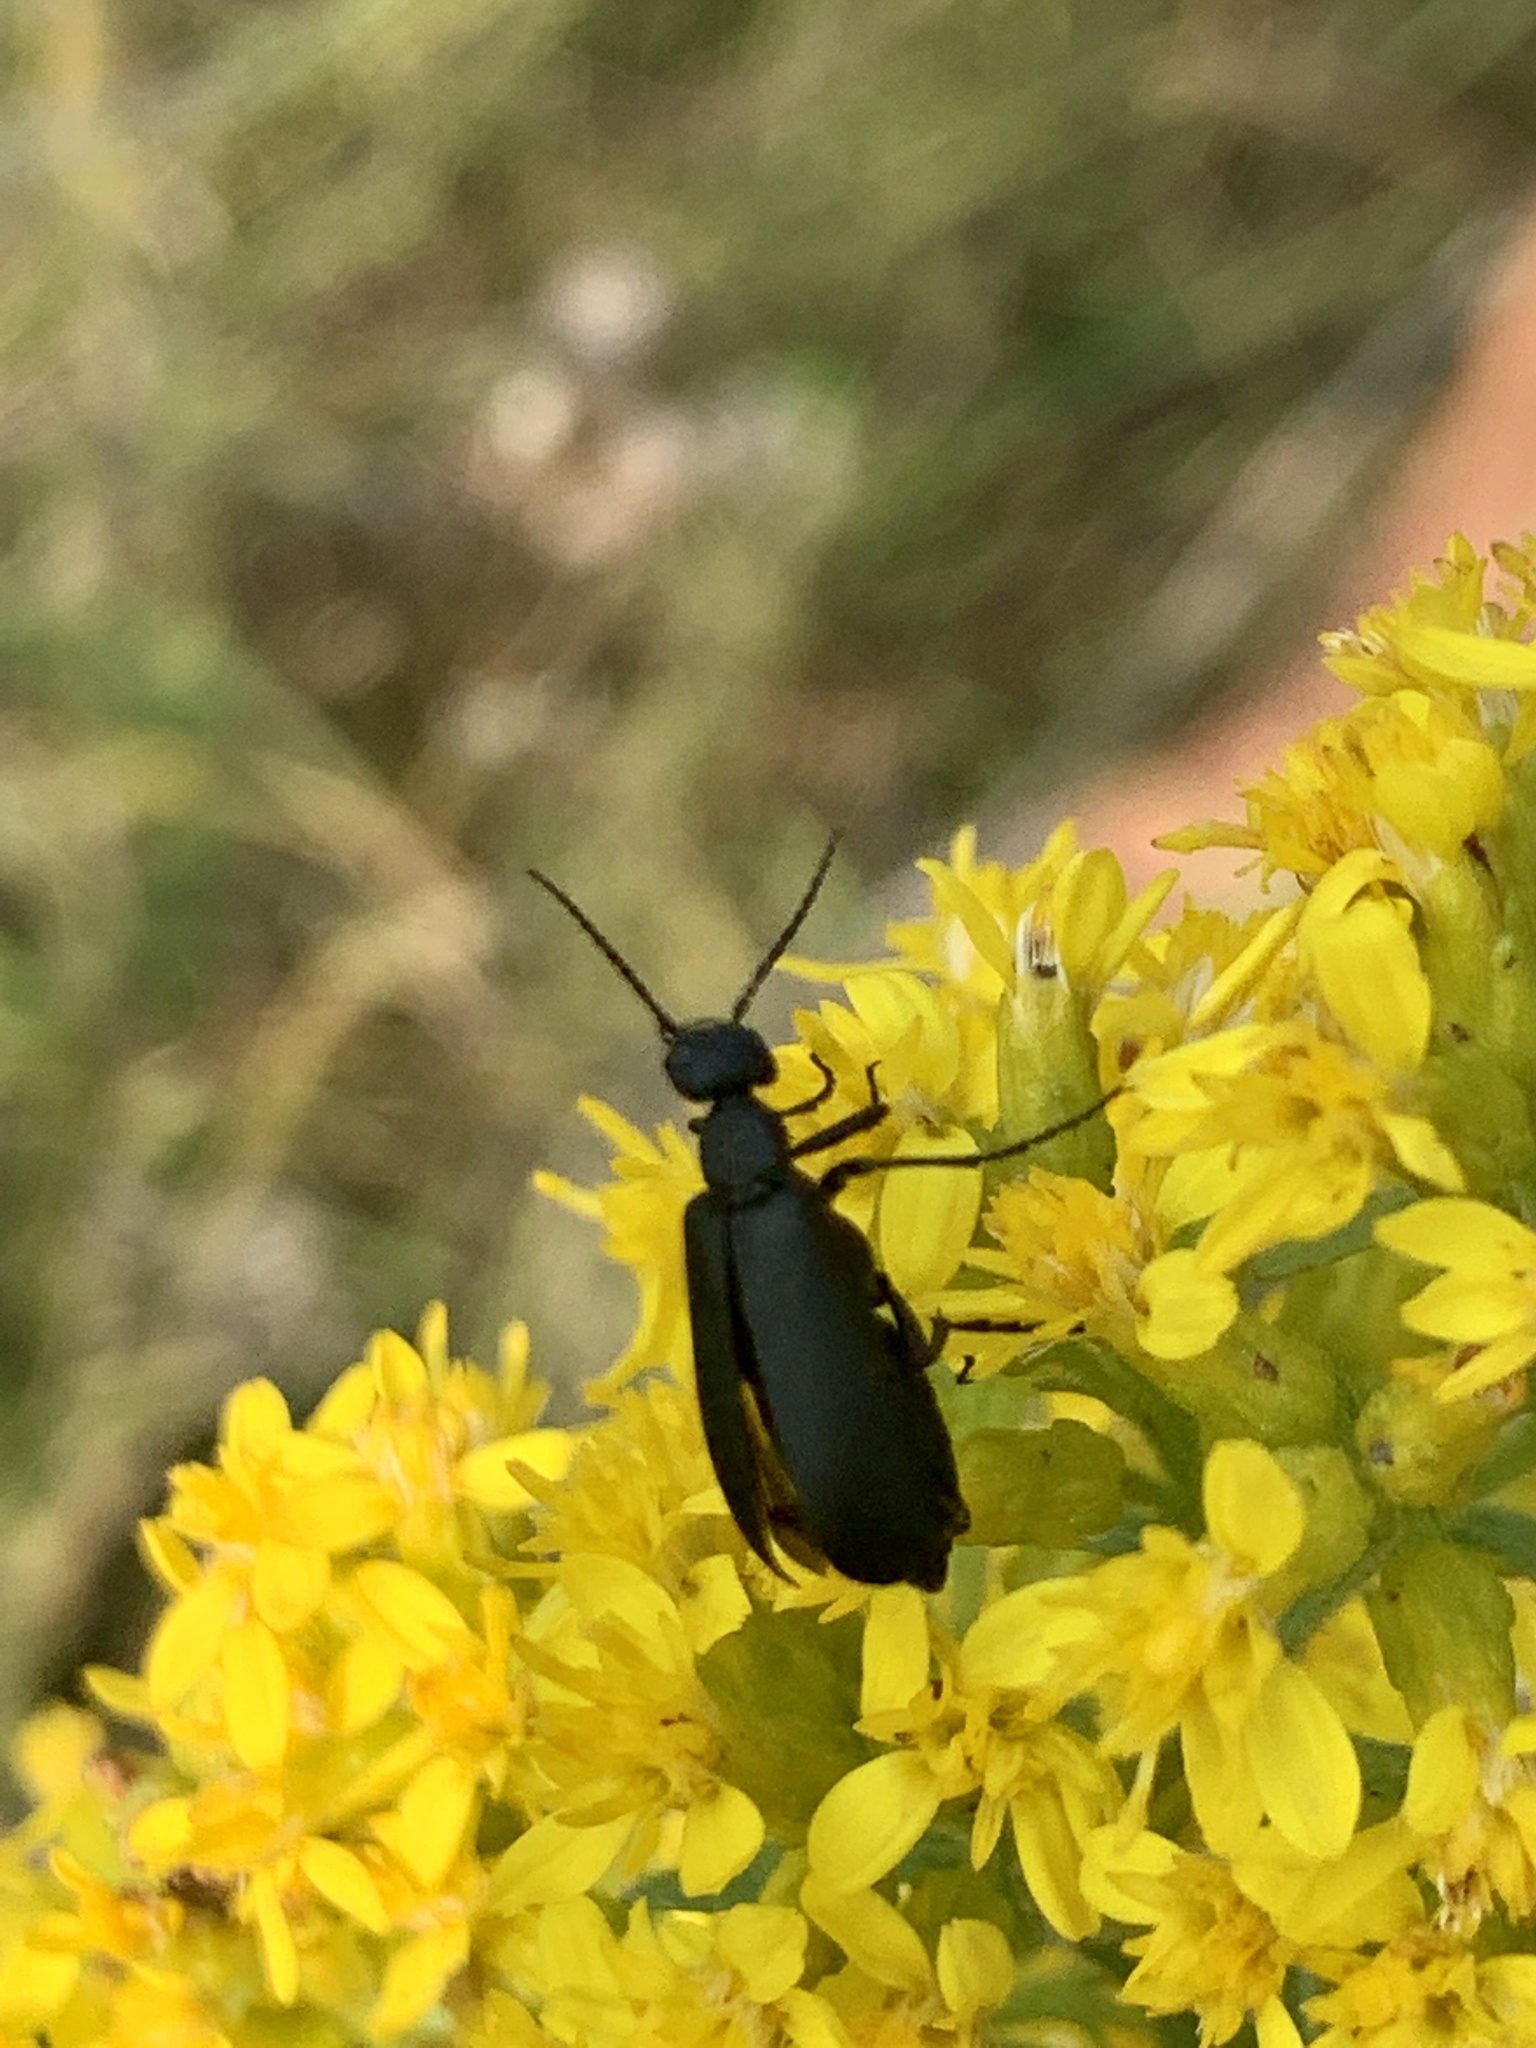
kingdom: Animalia
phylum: Arthropoda
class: Insecta
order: Coleoptera
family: Meloidae
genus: Epicauta
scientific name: Epicauta pensylvanica
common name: Black blister beetle
